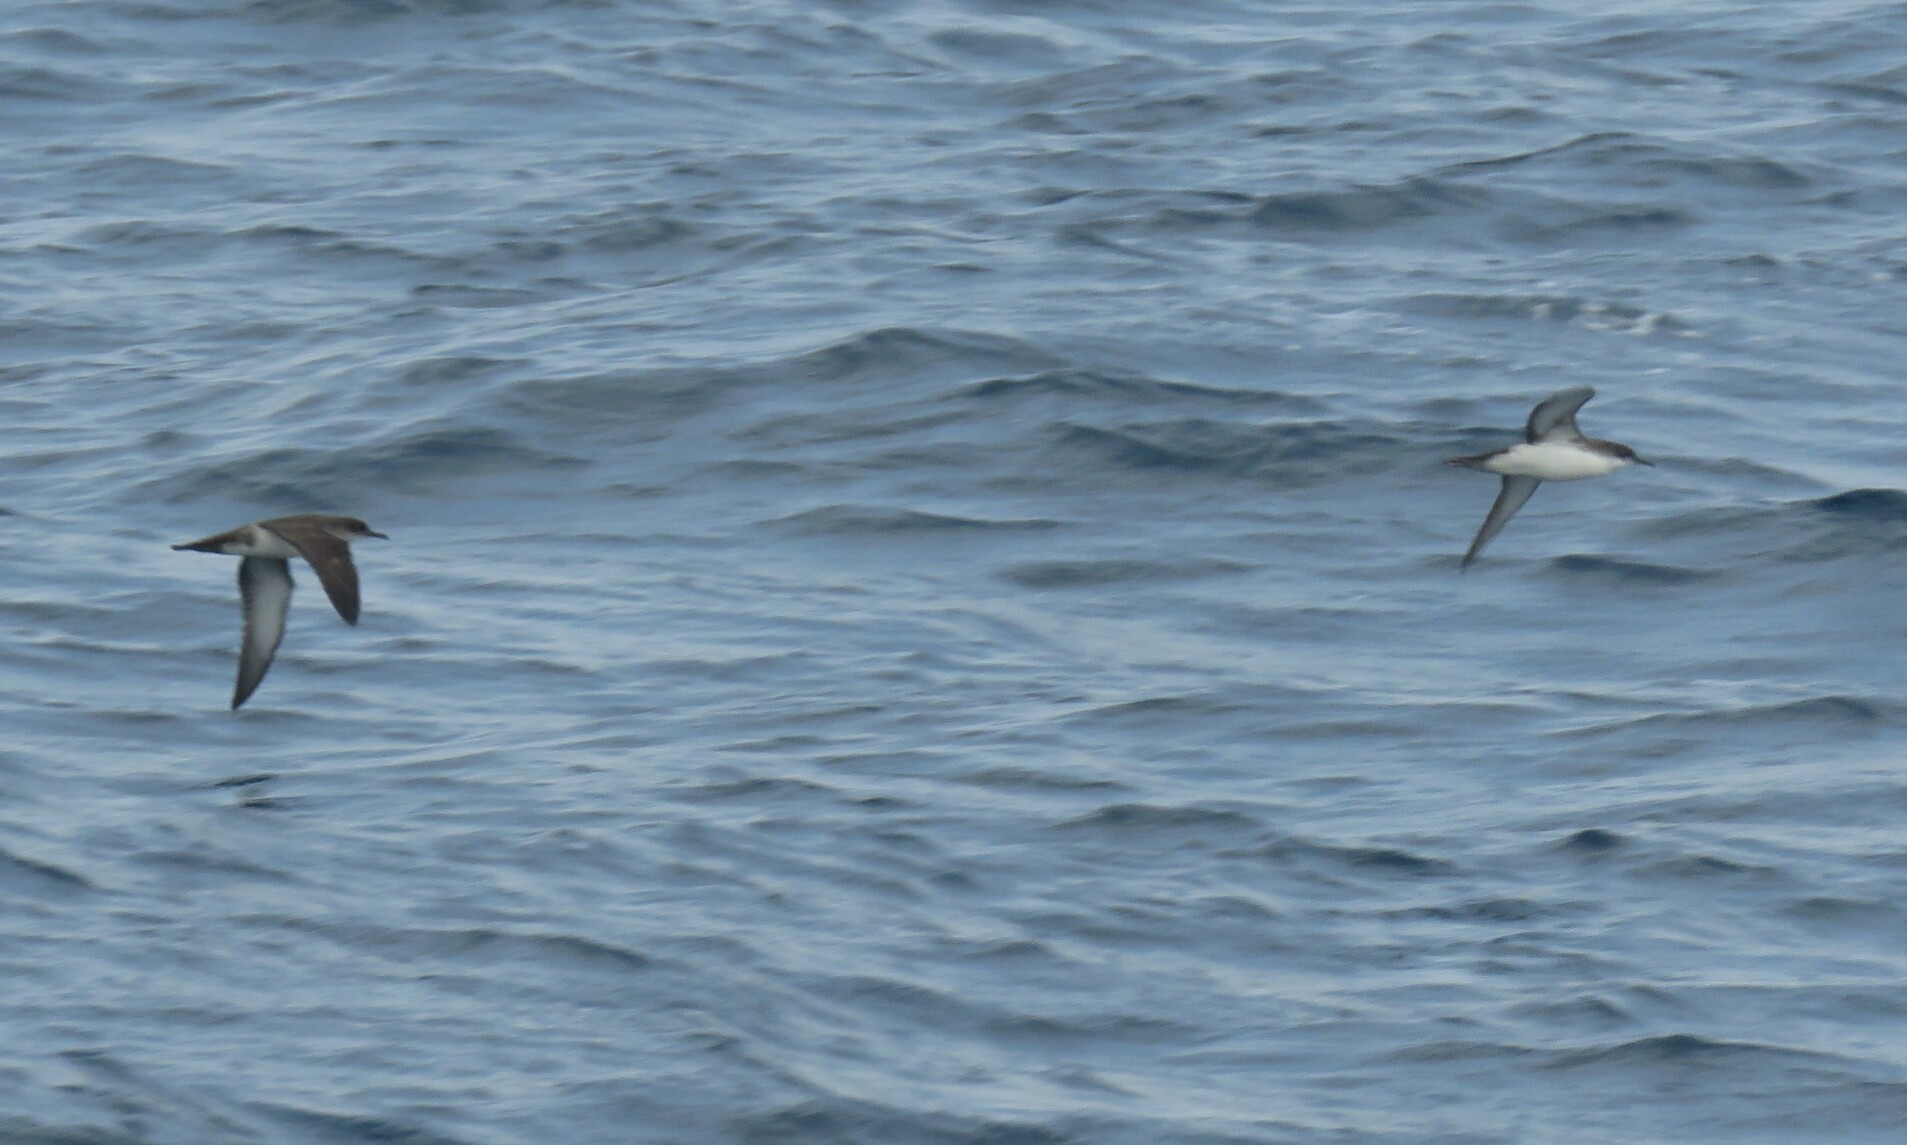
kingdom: Animalia
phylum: Chordata
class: Aves
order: Procellariiformes
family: Procellariidae
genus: Puffinus
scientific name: Puffinus yelkouan
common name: Yelkouan shearwater
